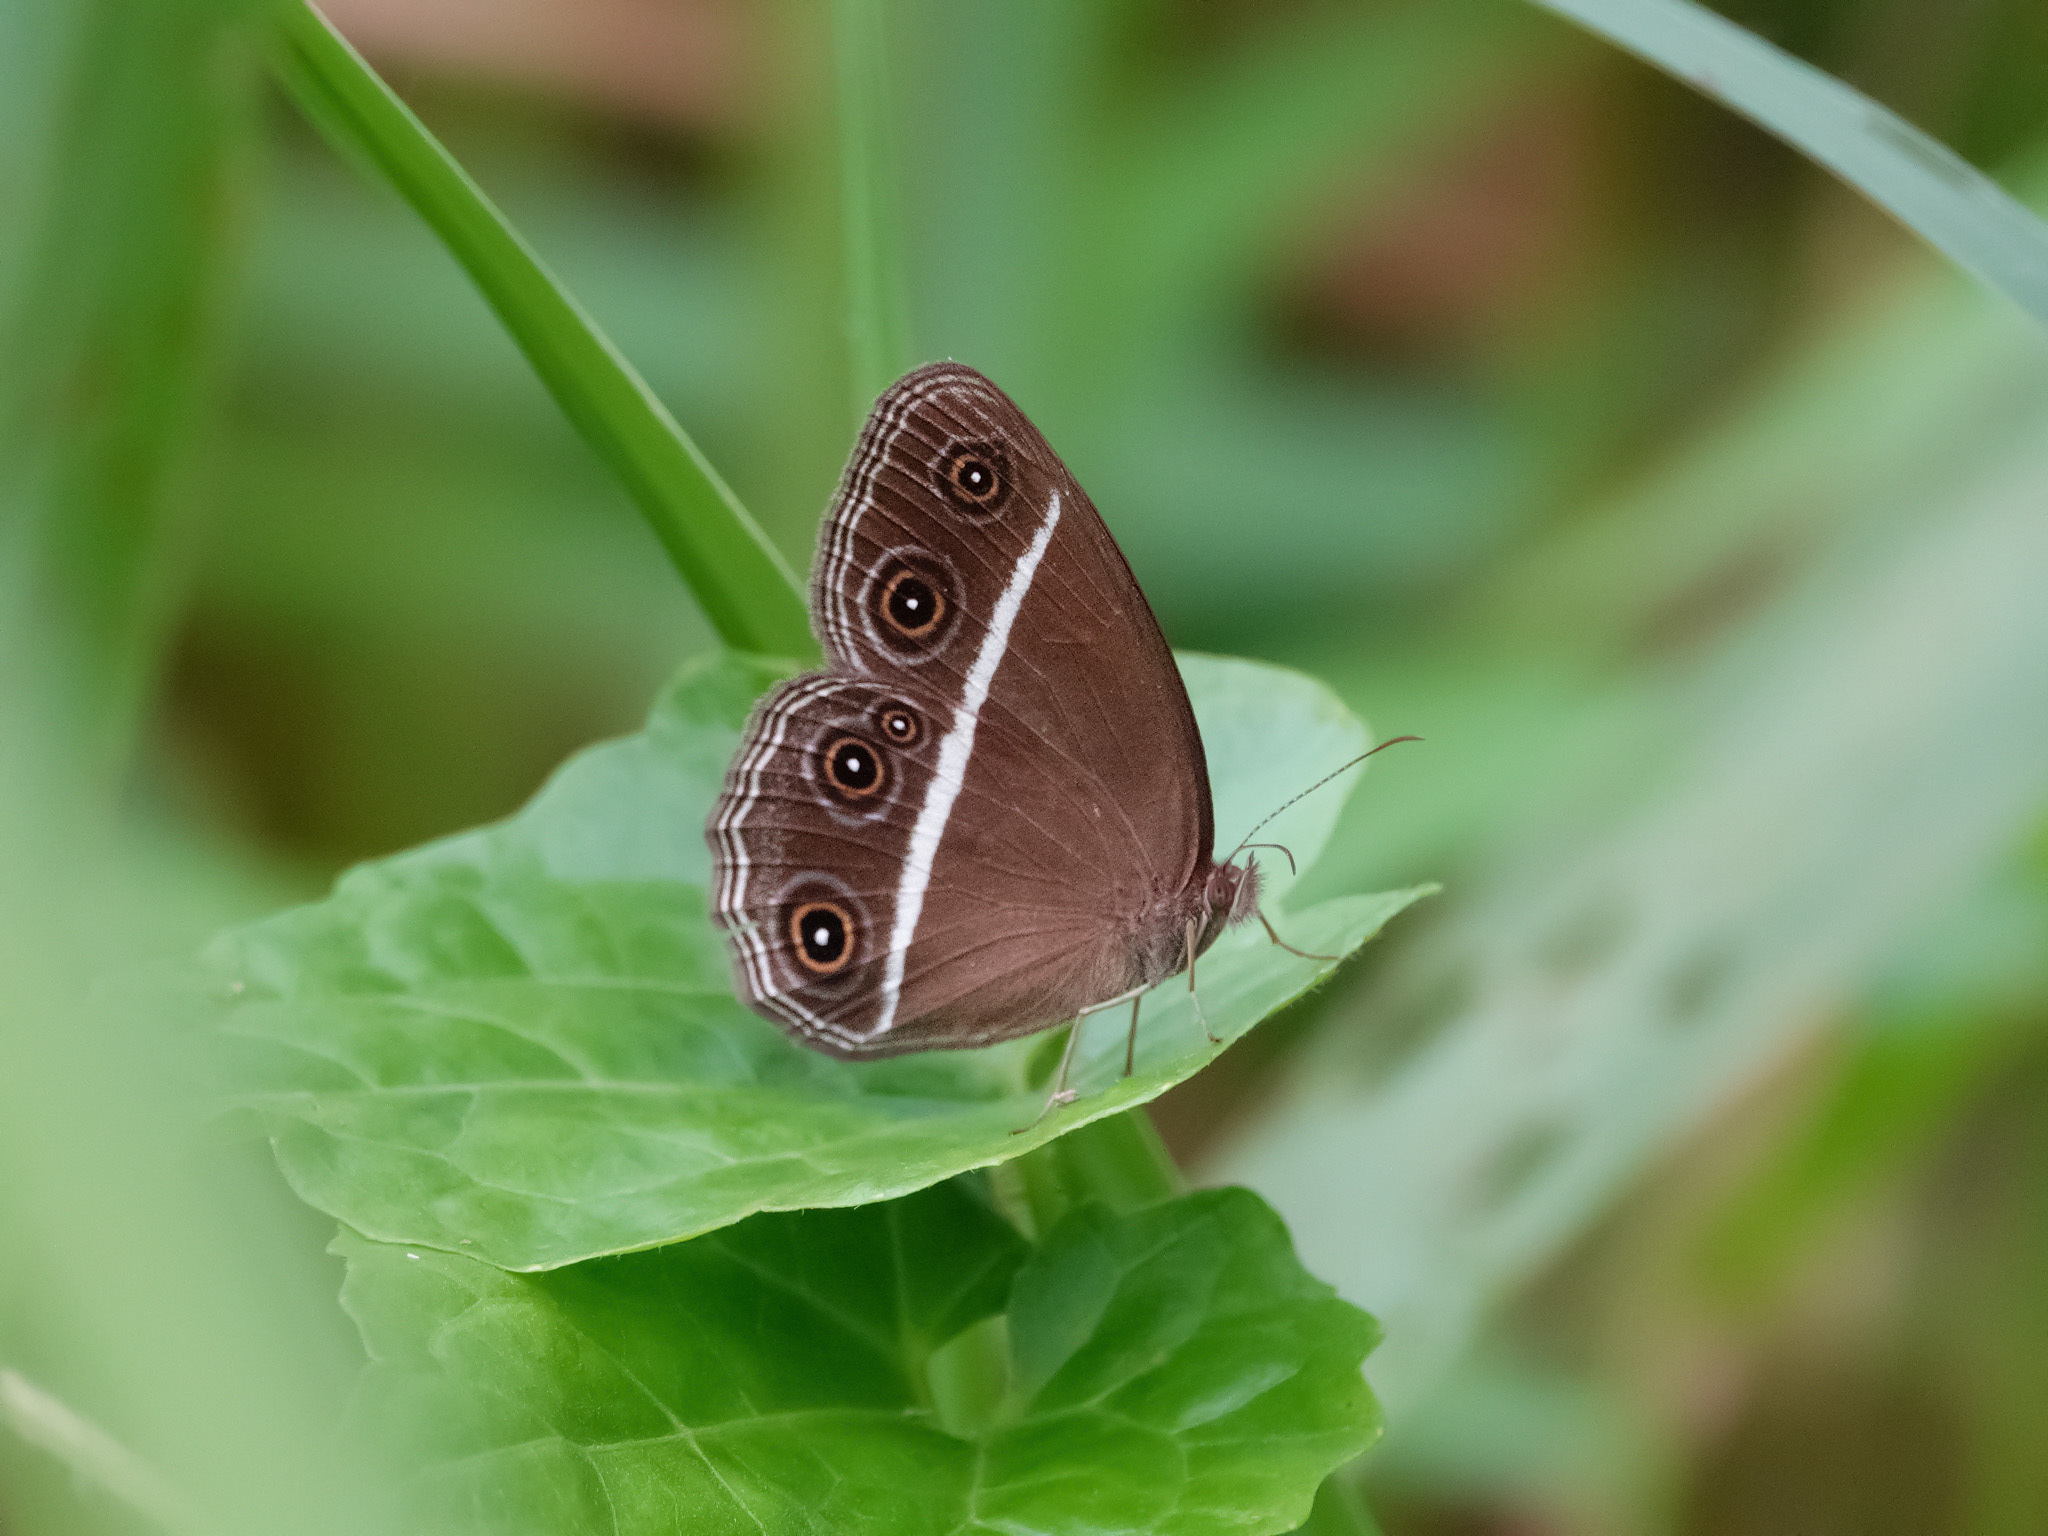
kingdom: Animalia
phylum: Arthropoda
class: Insecta
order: Lepidoptera
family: Nymphalidae
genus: Orsotriaena
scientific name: Orsotriaena medus
